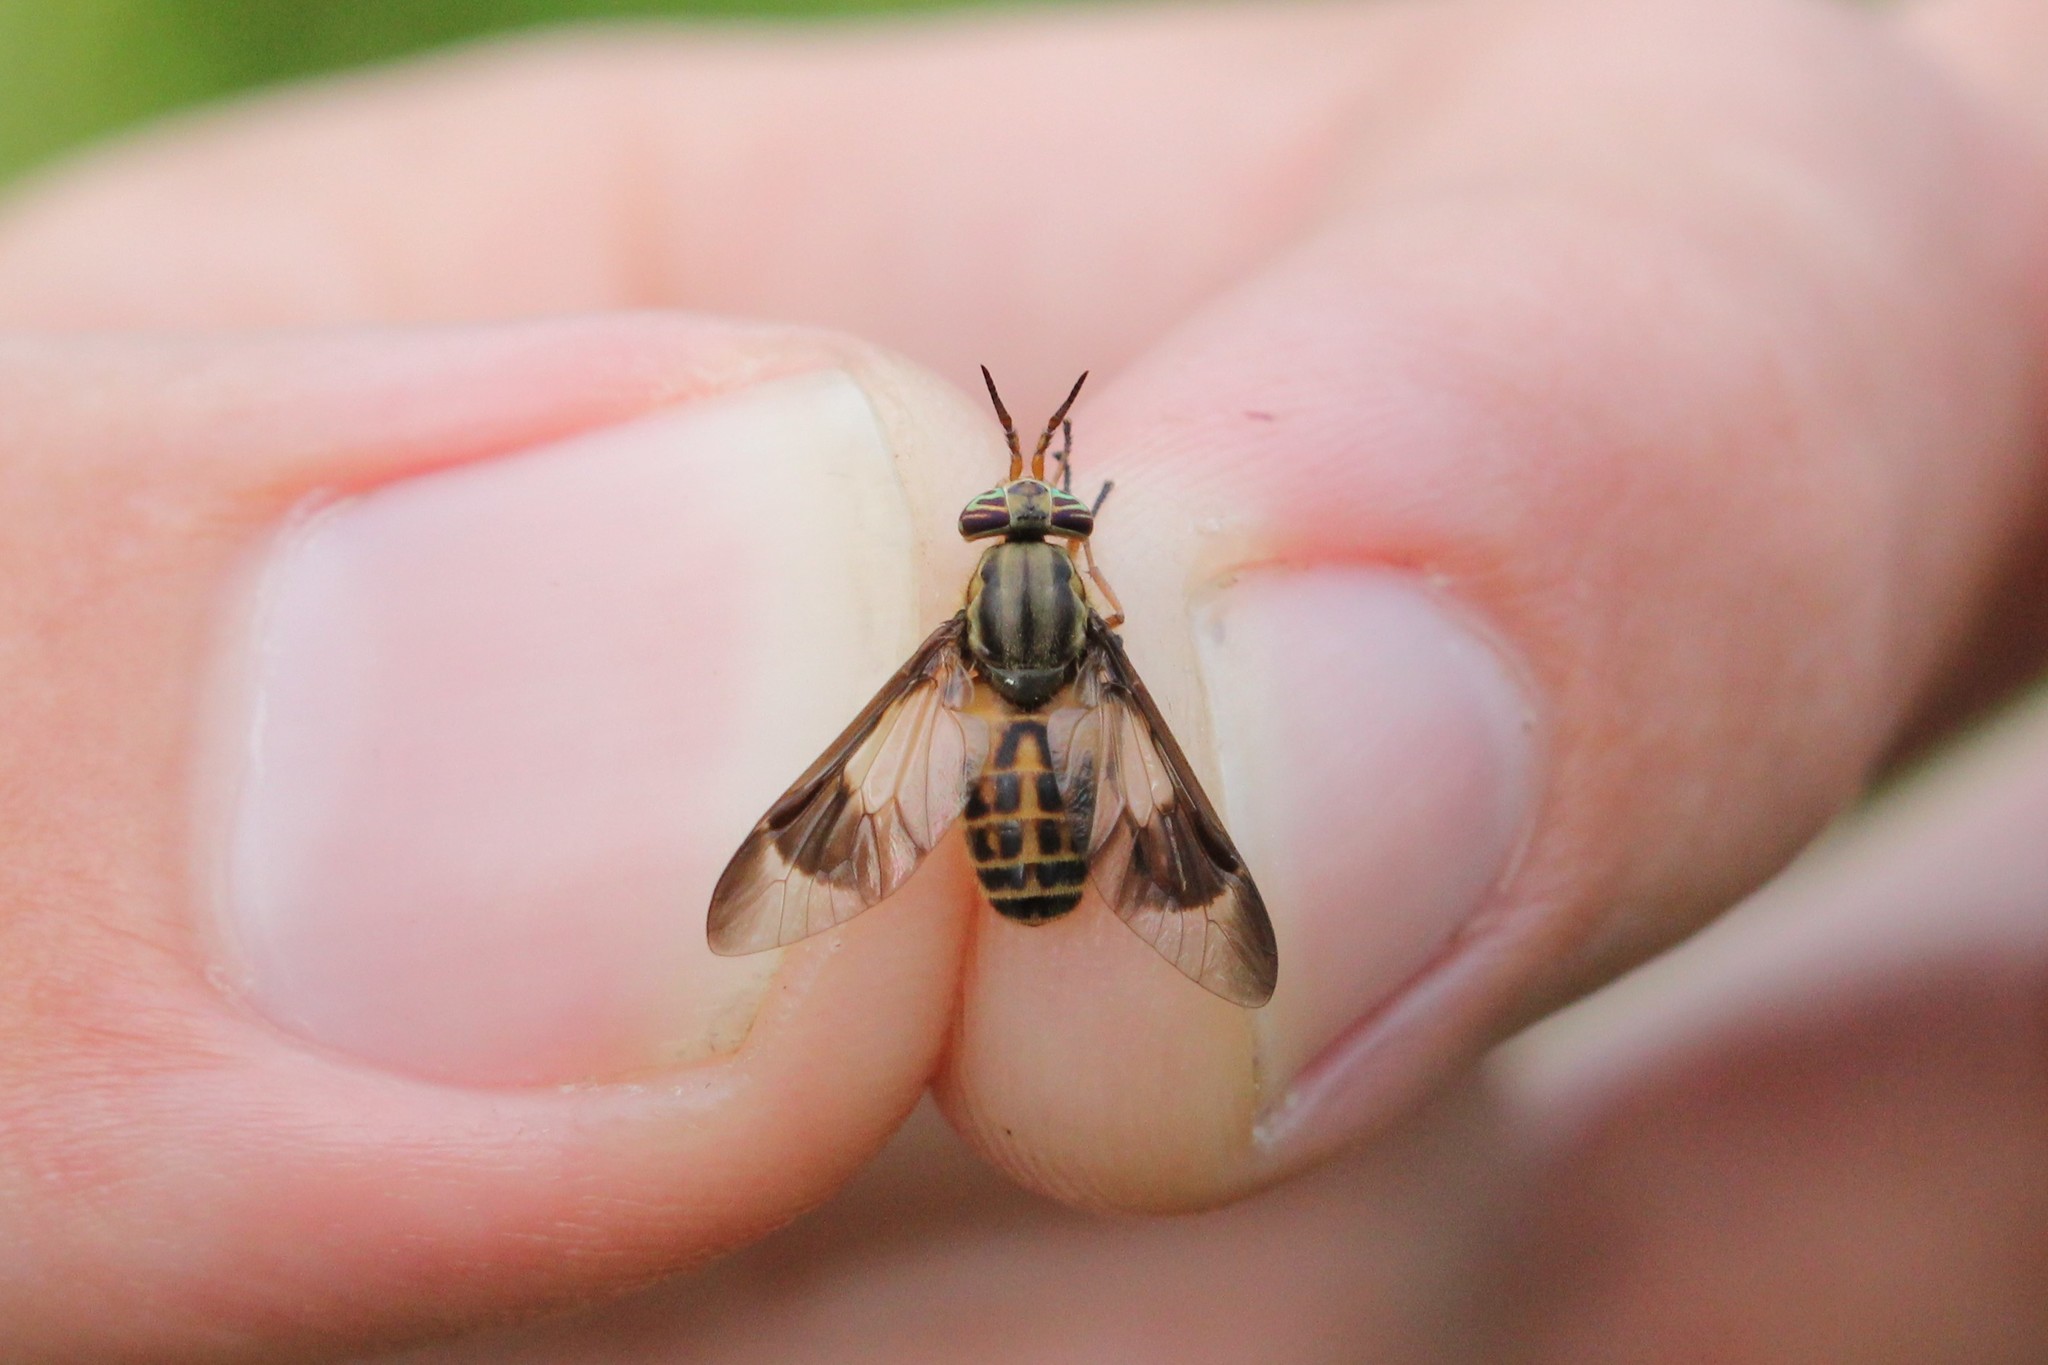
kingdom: Animalia
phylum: Arthropoda
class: Insecta
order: Diptera
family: Tabanidae
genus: Chrysops
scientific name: Chrysops montanus
